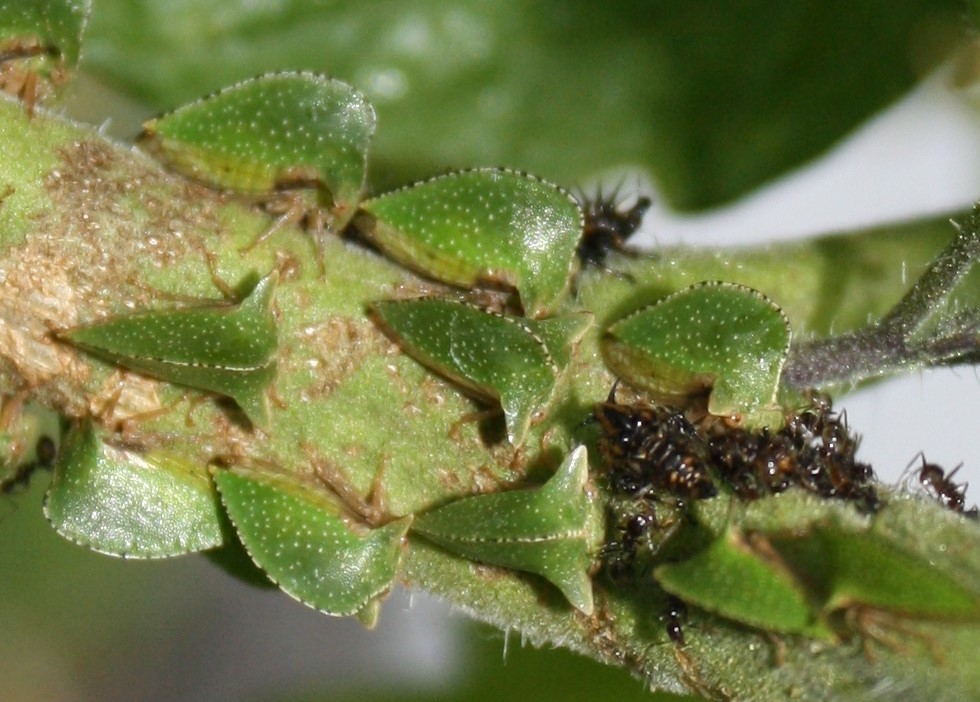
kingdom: Animalia
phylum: Arthropoda
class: Insecta
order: Hemiptera
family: Membracidae
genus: Antianthe
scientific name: Antianthe expansa
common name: Keeled tree hopper
